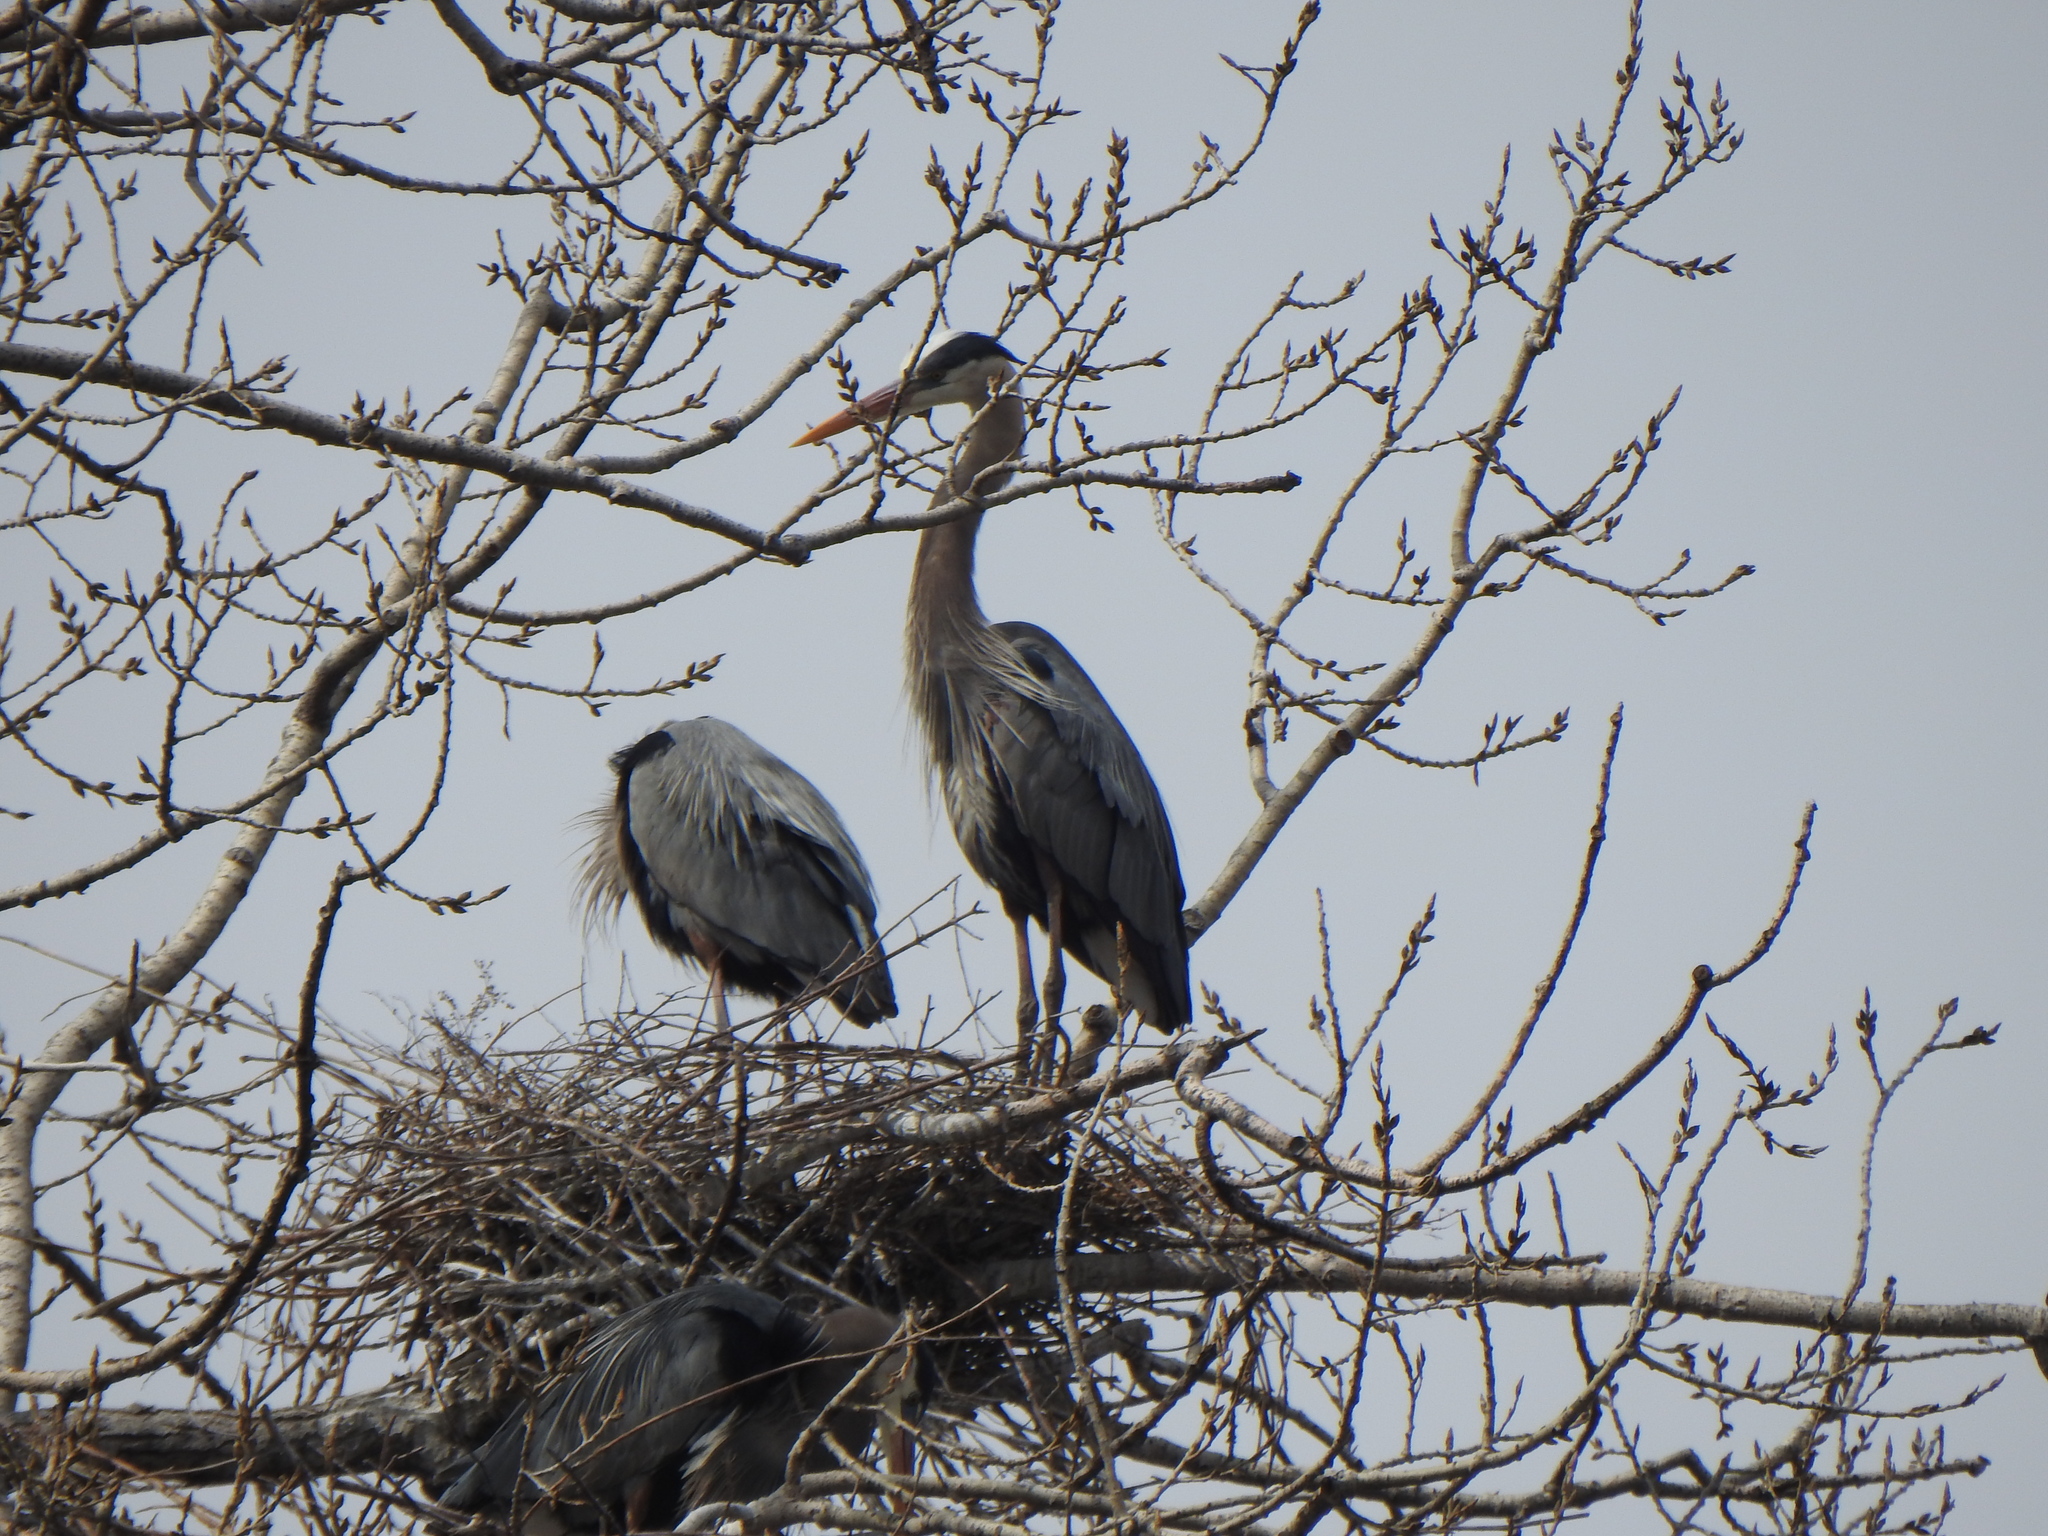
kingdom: Animalia
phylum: Chordata
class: Aves
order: Pelecaniformes
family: Ardeidae
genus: Ardea
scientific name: Ardea herodias
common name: Great blue heron
